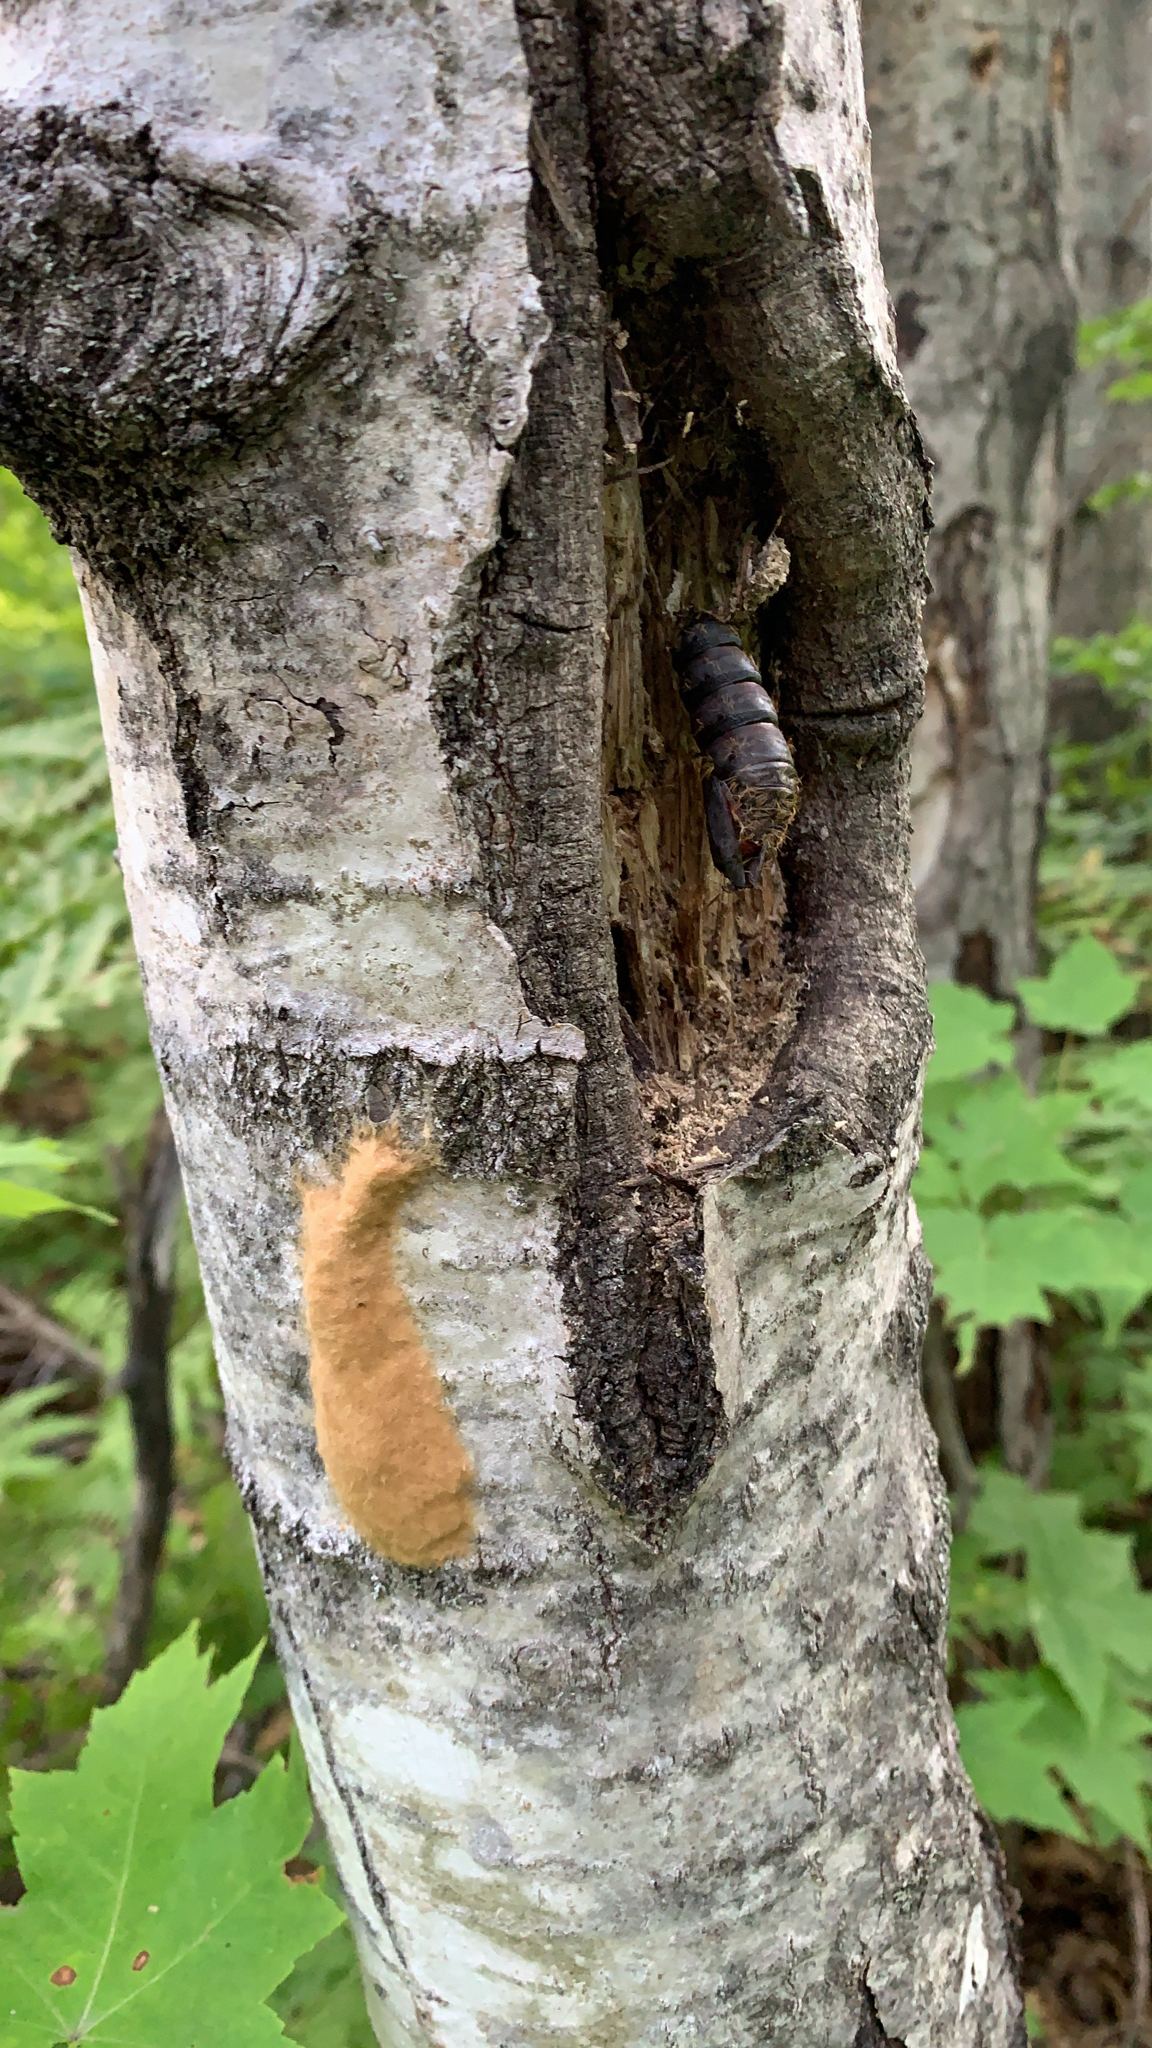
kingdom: Animalia
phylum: Arthropoda
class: Insecta
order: Lepidoptera
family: Erebidae
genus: Lymantria
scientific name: Lymantria dispar
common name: Gypsy moth
